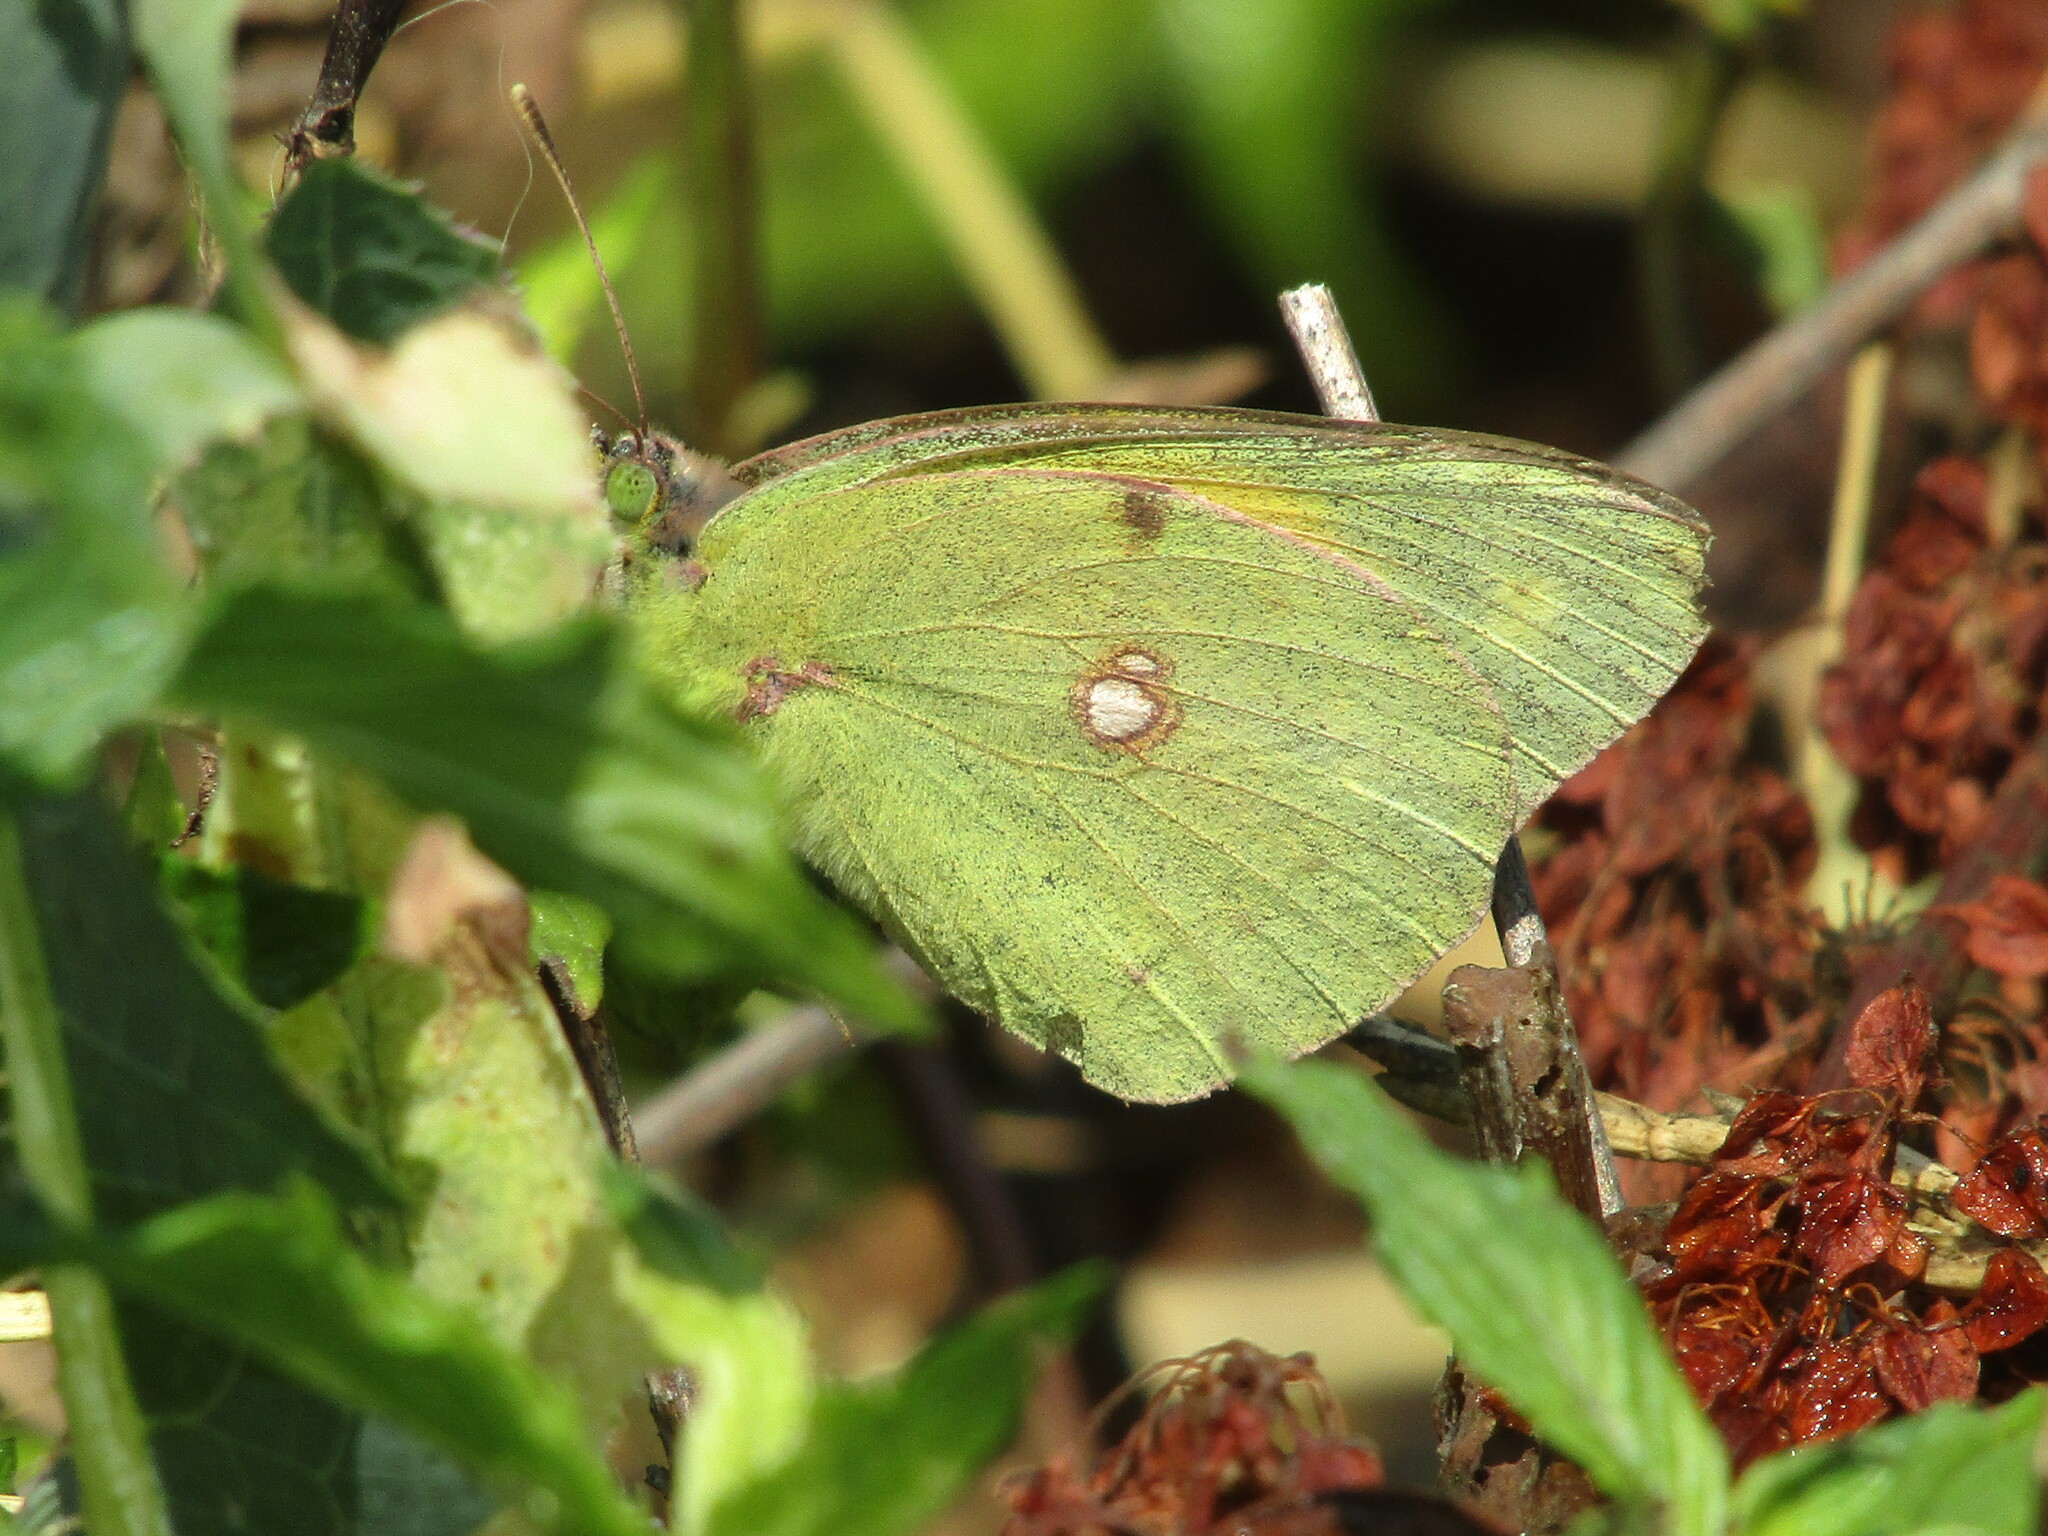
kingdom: Animalia
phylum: Arthropoda
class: Insecta
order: Lepidoptera
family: Pieridae
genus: Colias
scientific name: Colias
